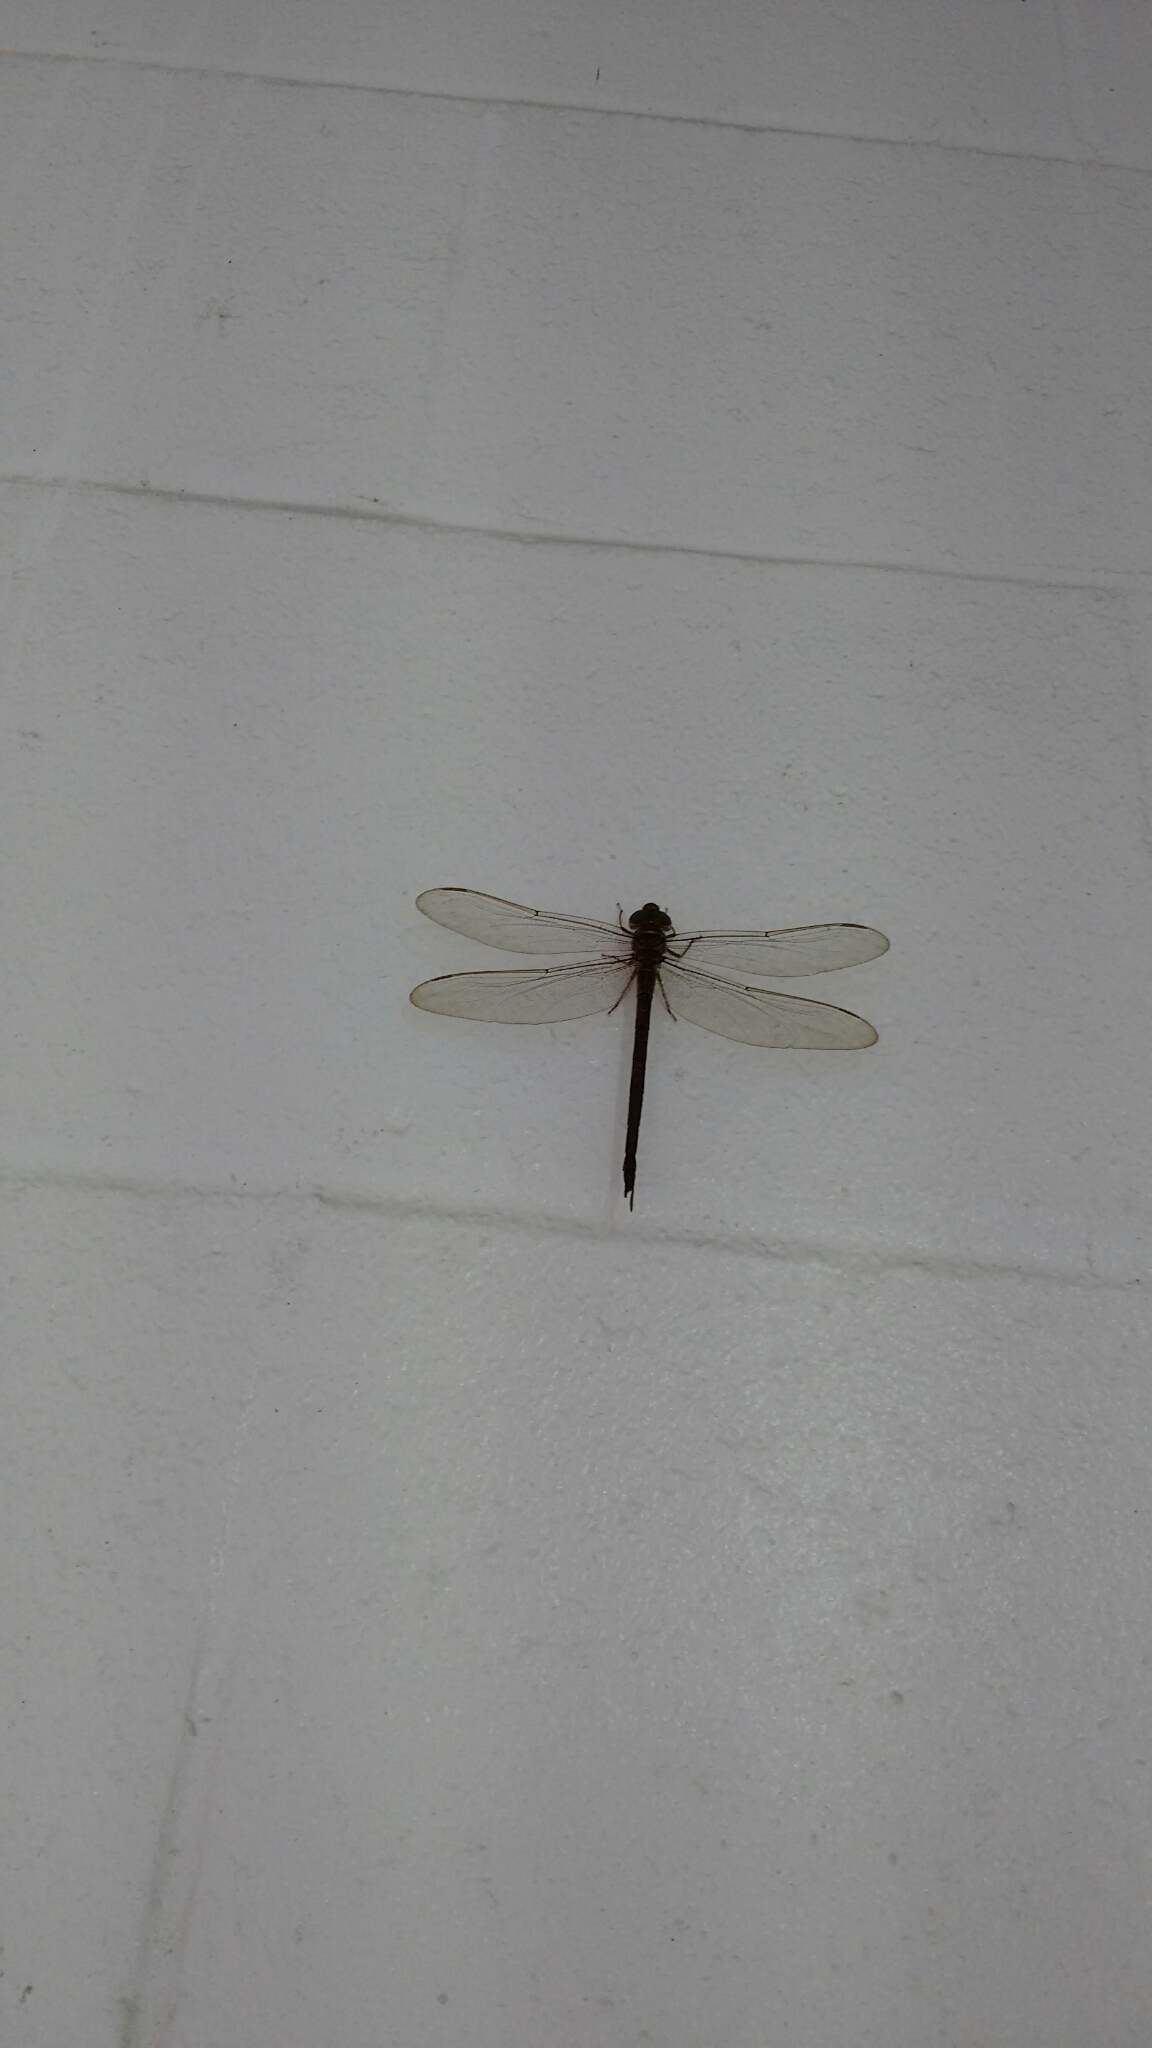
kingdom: Animalia
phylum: Arthropoda
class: Insecta
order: Odonata
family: Aeshnidae
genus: Gynacantha
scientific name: Gynacantha nervosa
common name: Twilight darner
